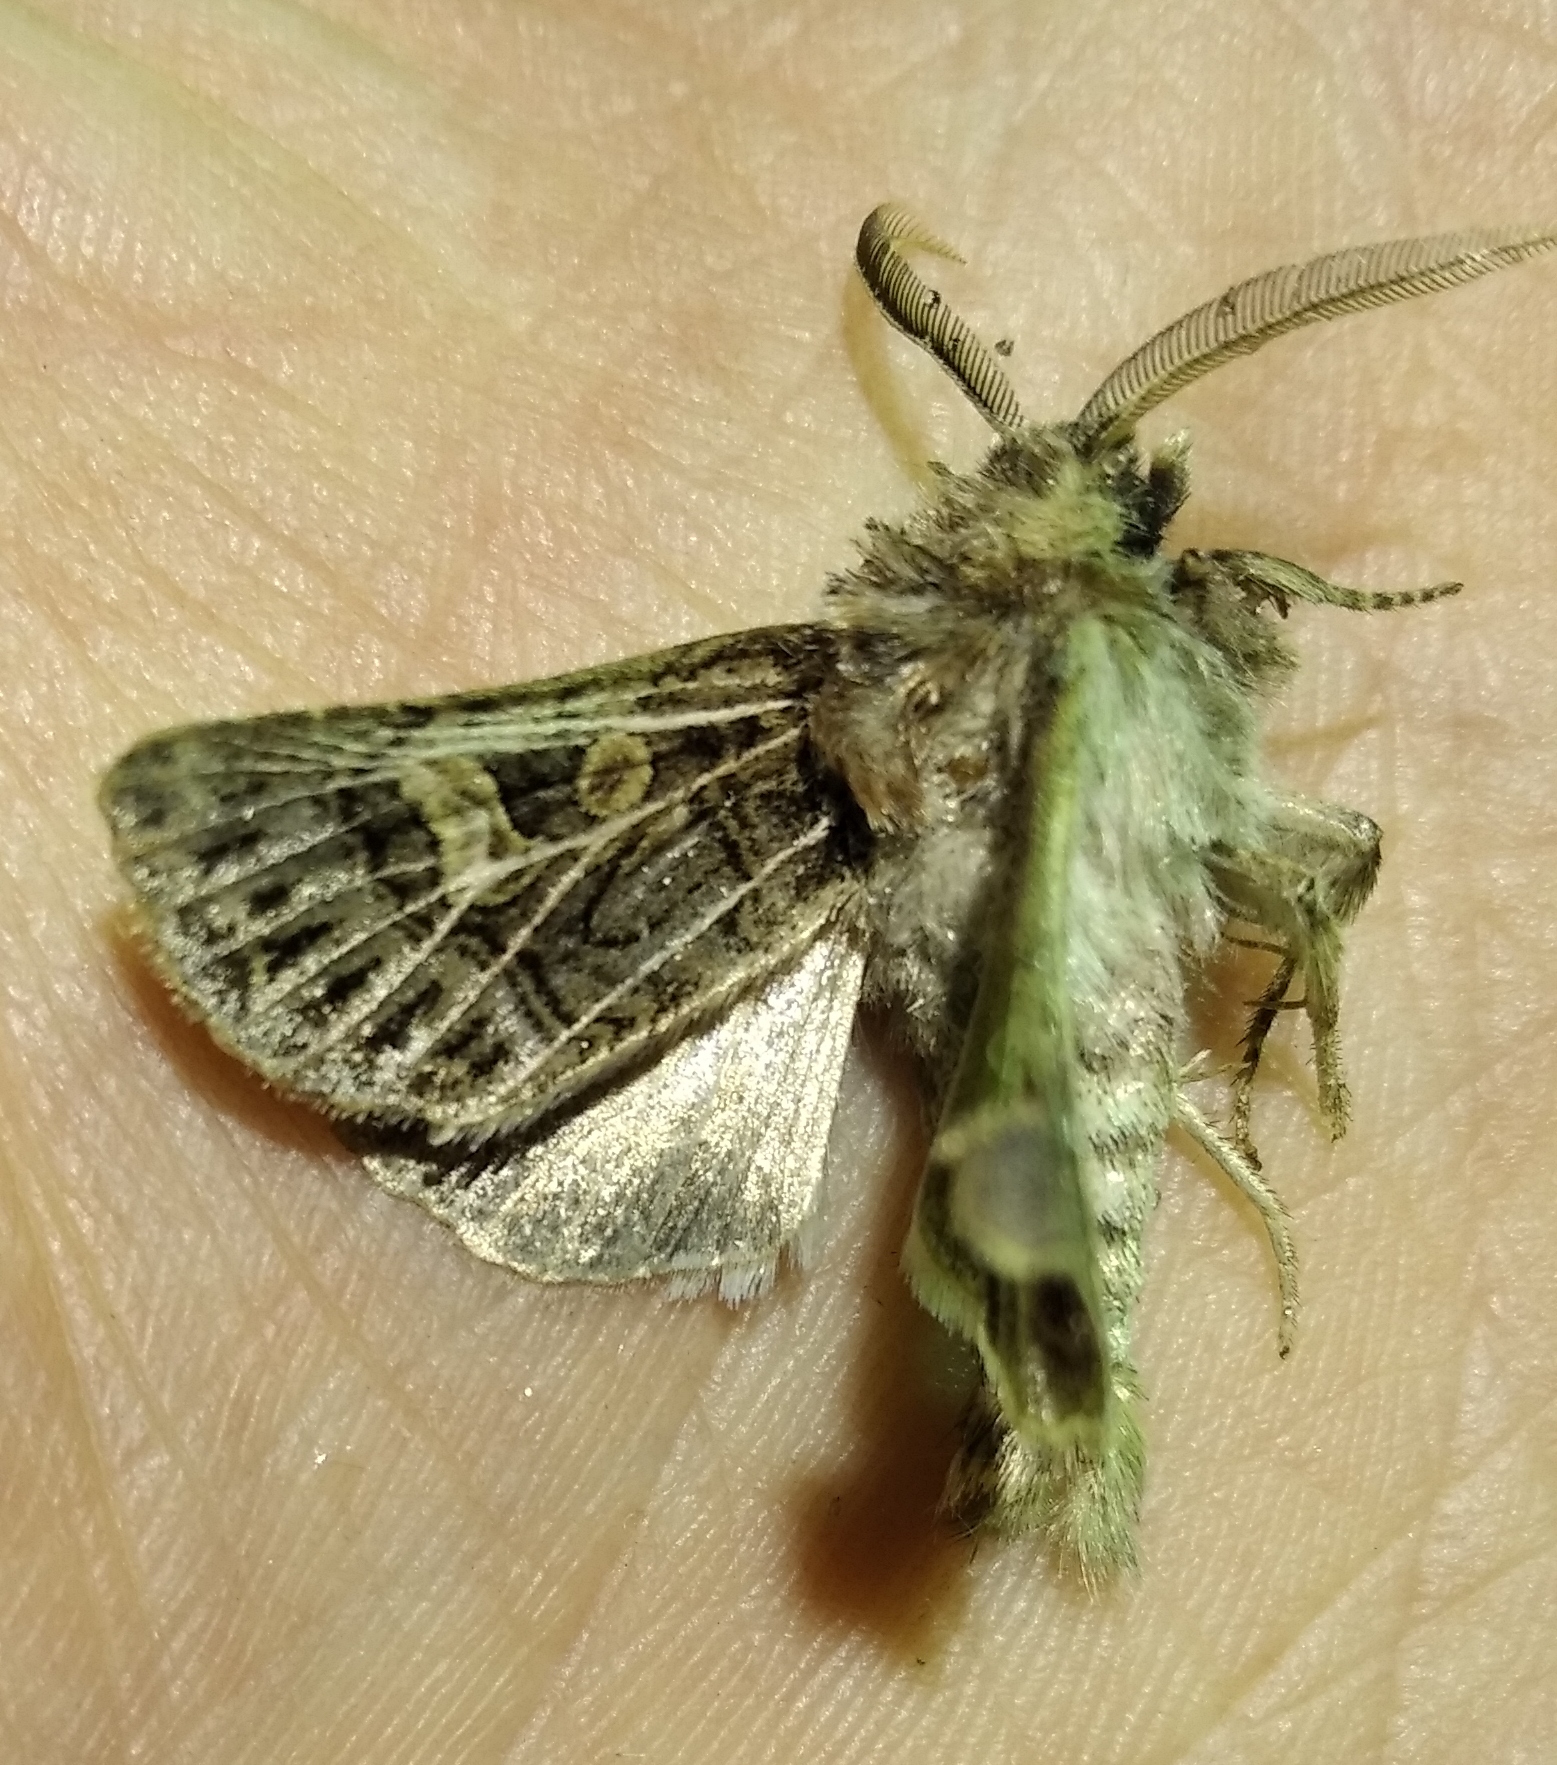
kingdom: Animalia
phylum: Arthropoda
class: Insecta
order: Lepidoptera
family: Noctuidae
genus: Tholera
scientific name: Tholera decimalis
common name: Feathered gothic
